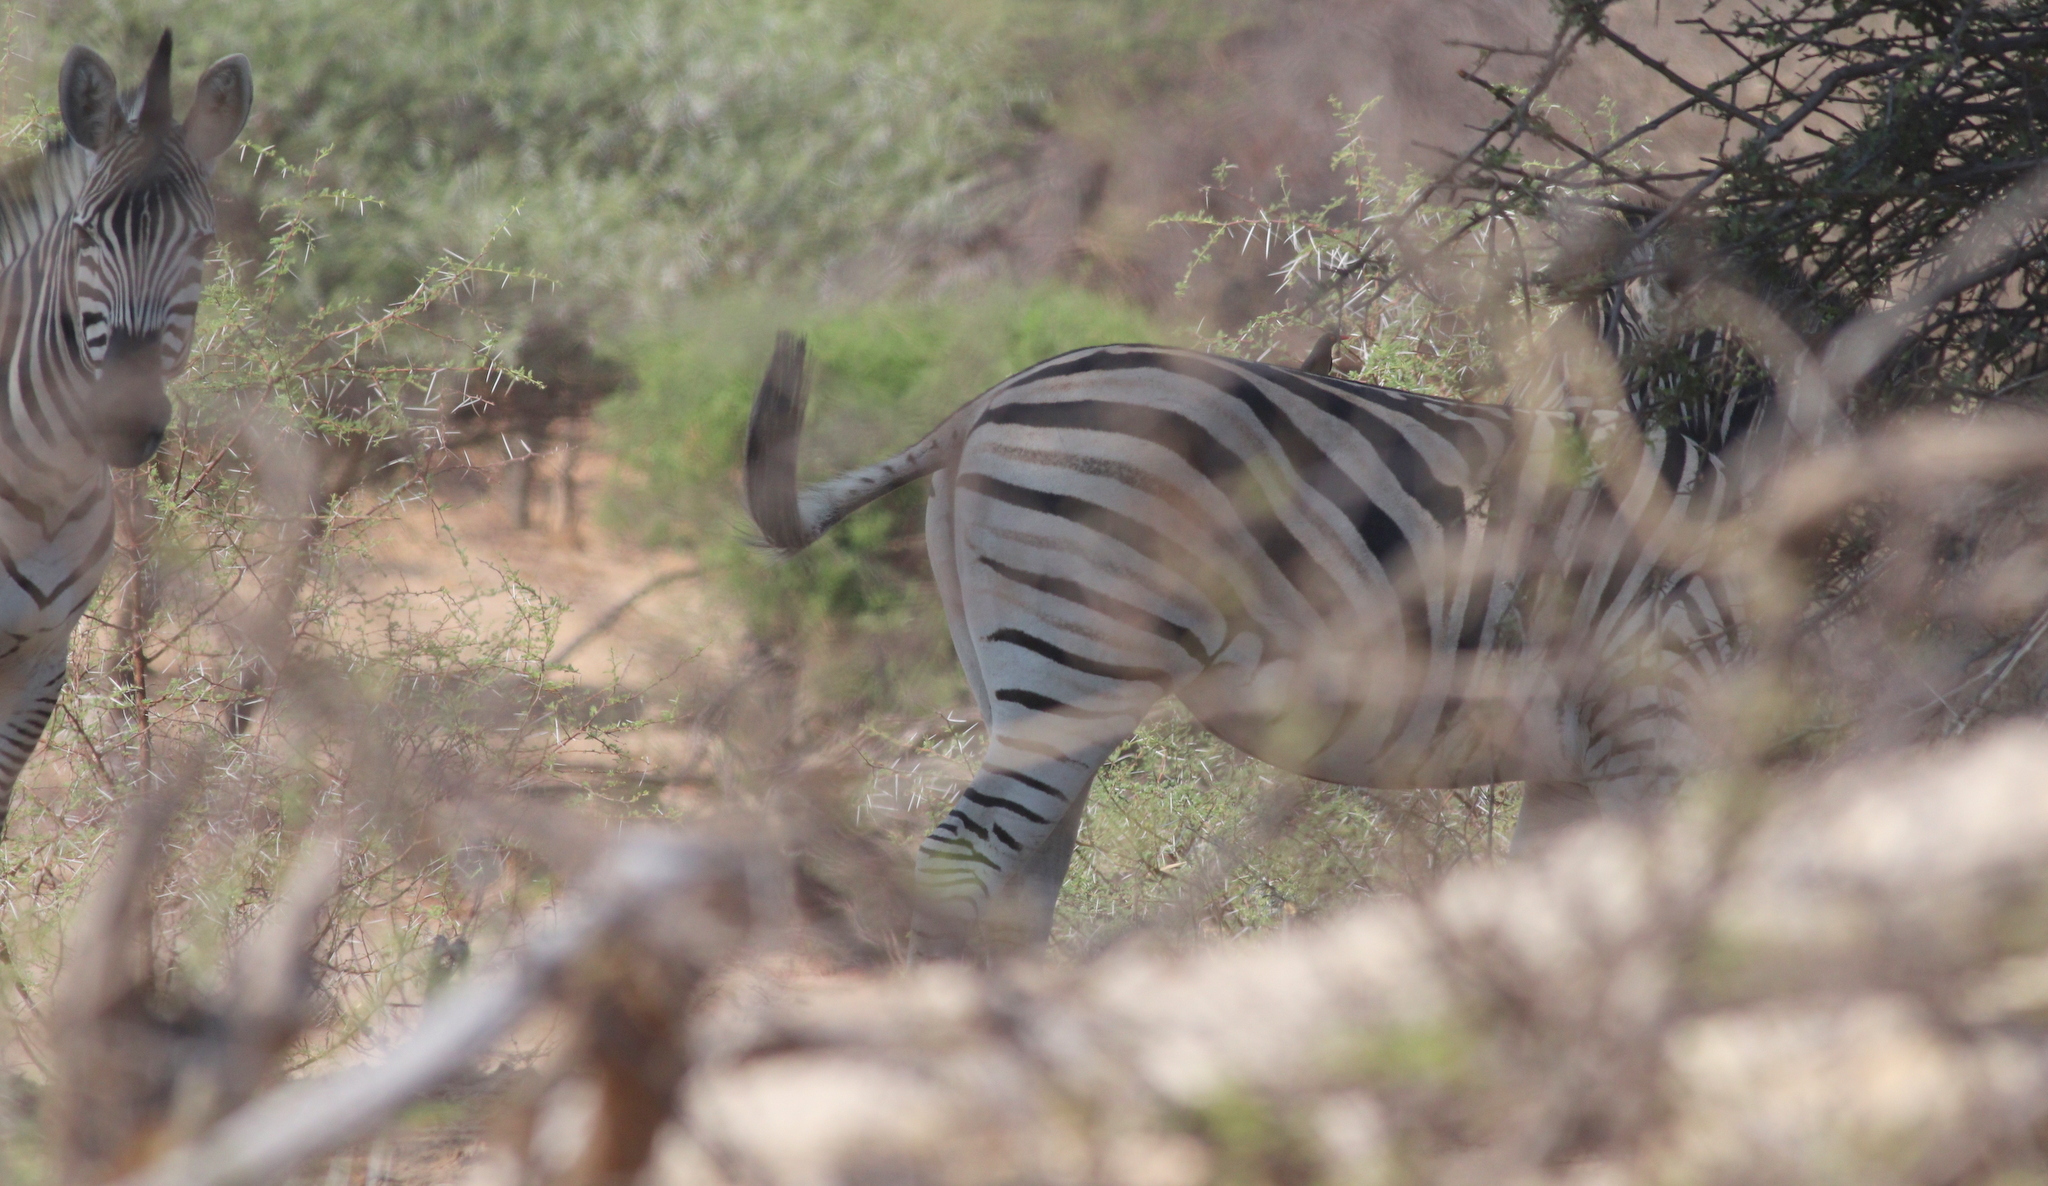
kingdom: Animalia
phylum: Chordata
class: Mammalia
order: Perissodactyla
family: Equidae
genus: Equus
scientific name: Equus quagga
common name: Plains zebra
